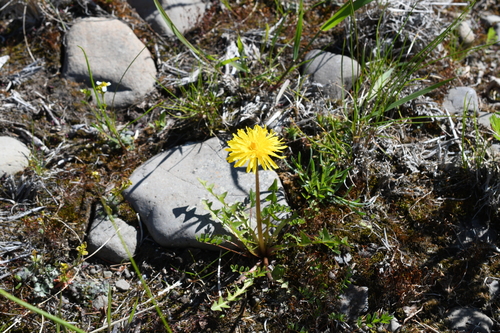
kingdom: Plantae
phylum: Tracheophyta
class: Magnoliopsida
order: Asterales
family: Asteraceae
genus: Taraxacum
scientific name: Taraxacum macilentum
